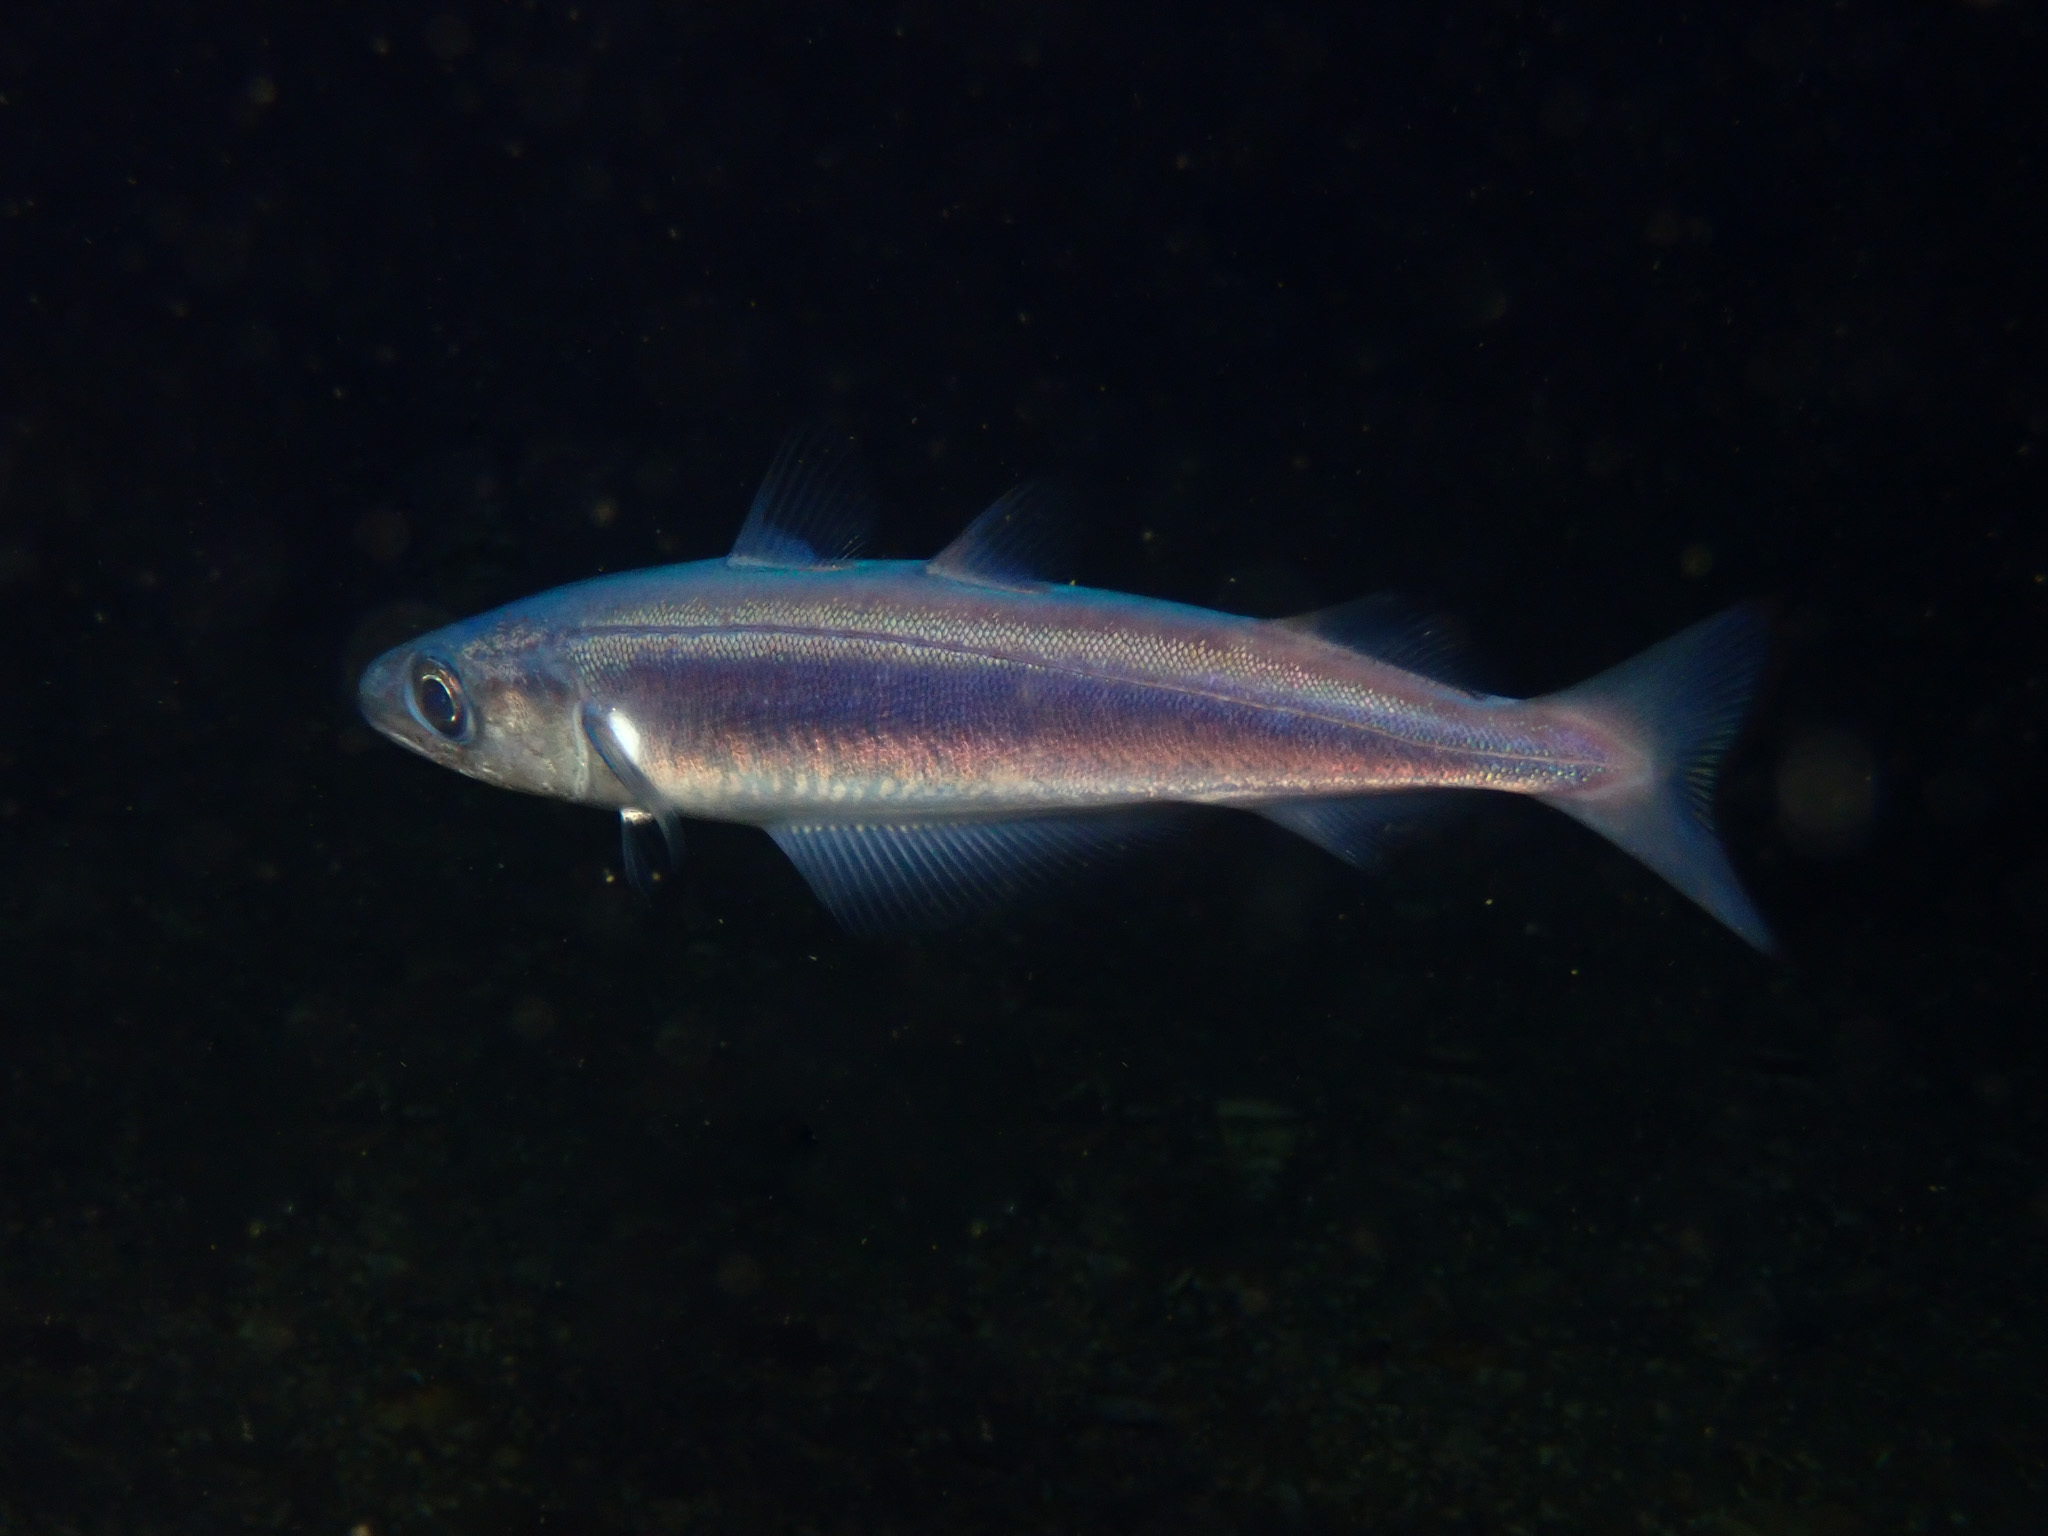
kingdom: Animalia
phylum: Chordata
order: Gadiformes
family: Gadidae
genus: Micromesistius
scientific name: Micromesistius poutassou
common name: Blue whiting
